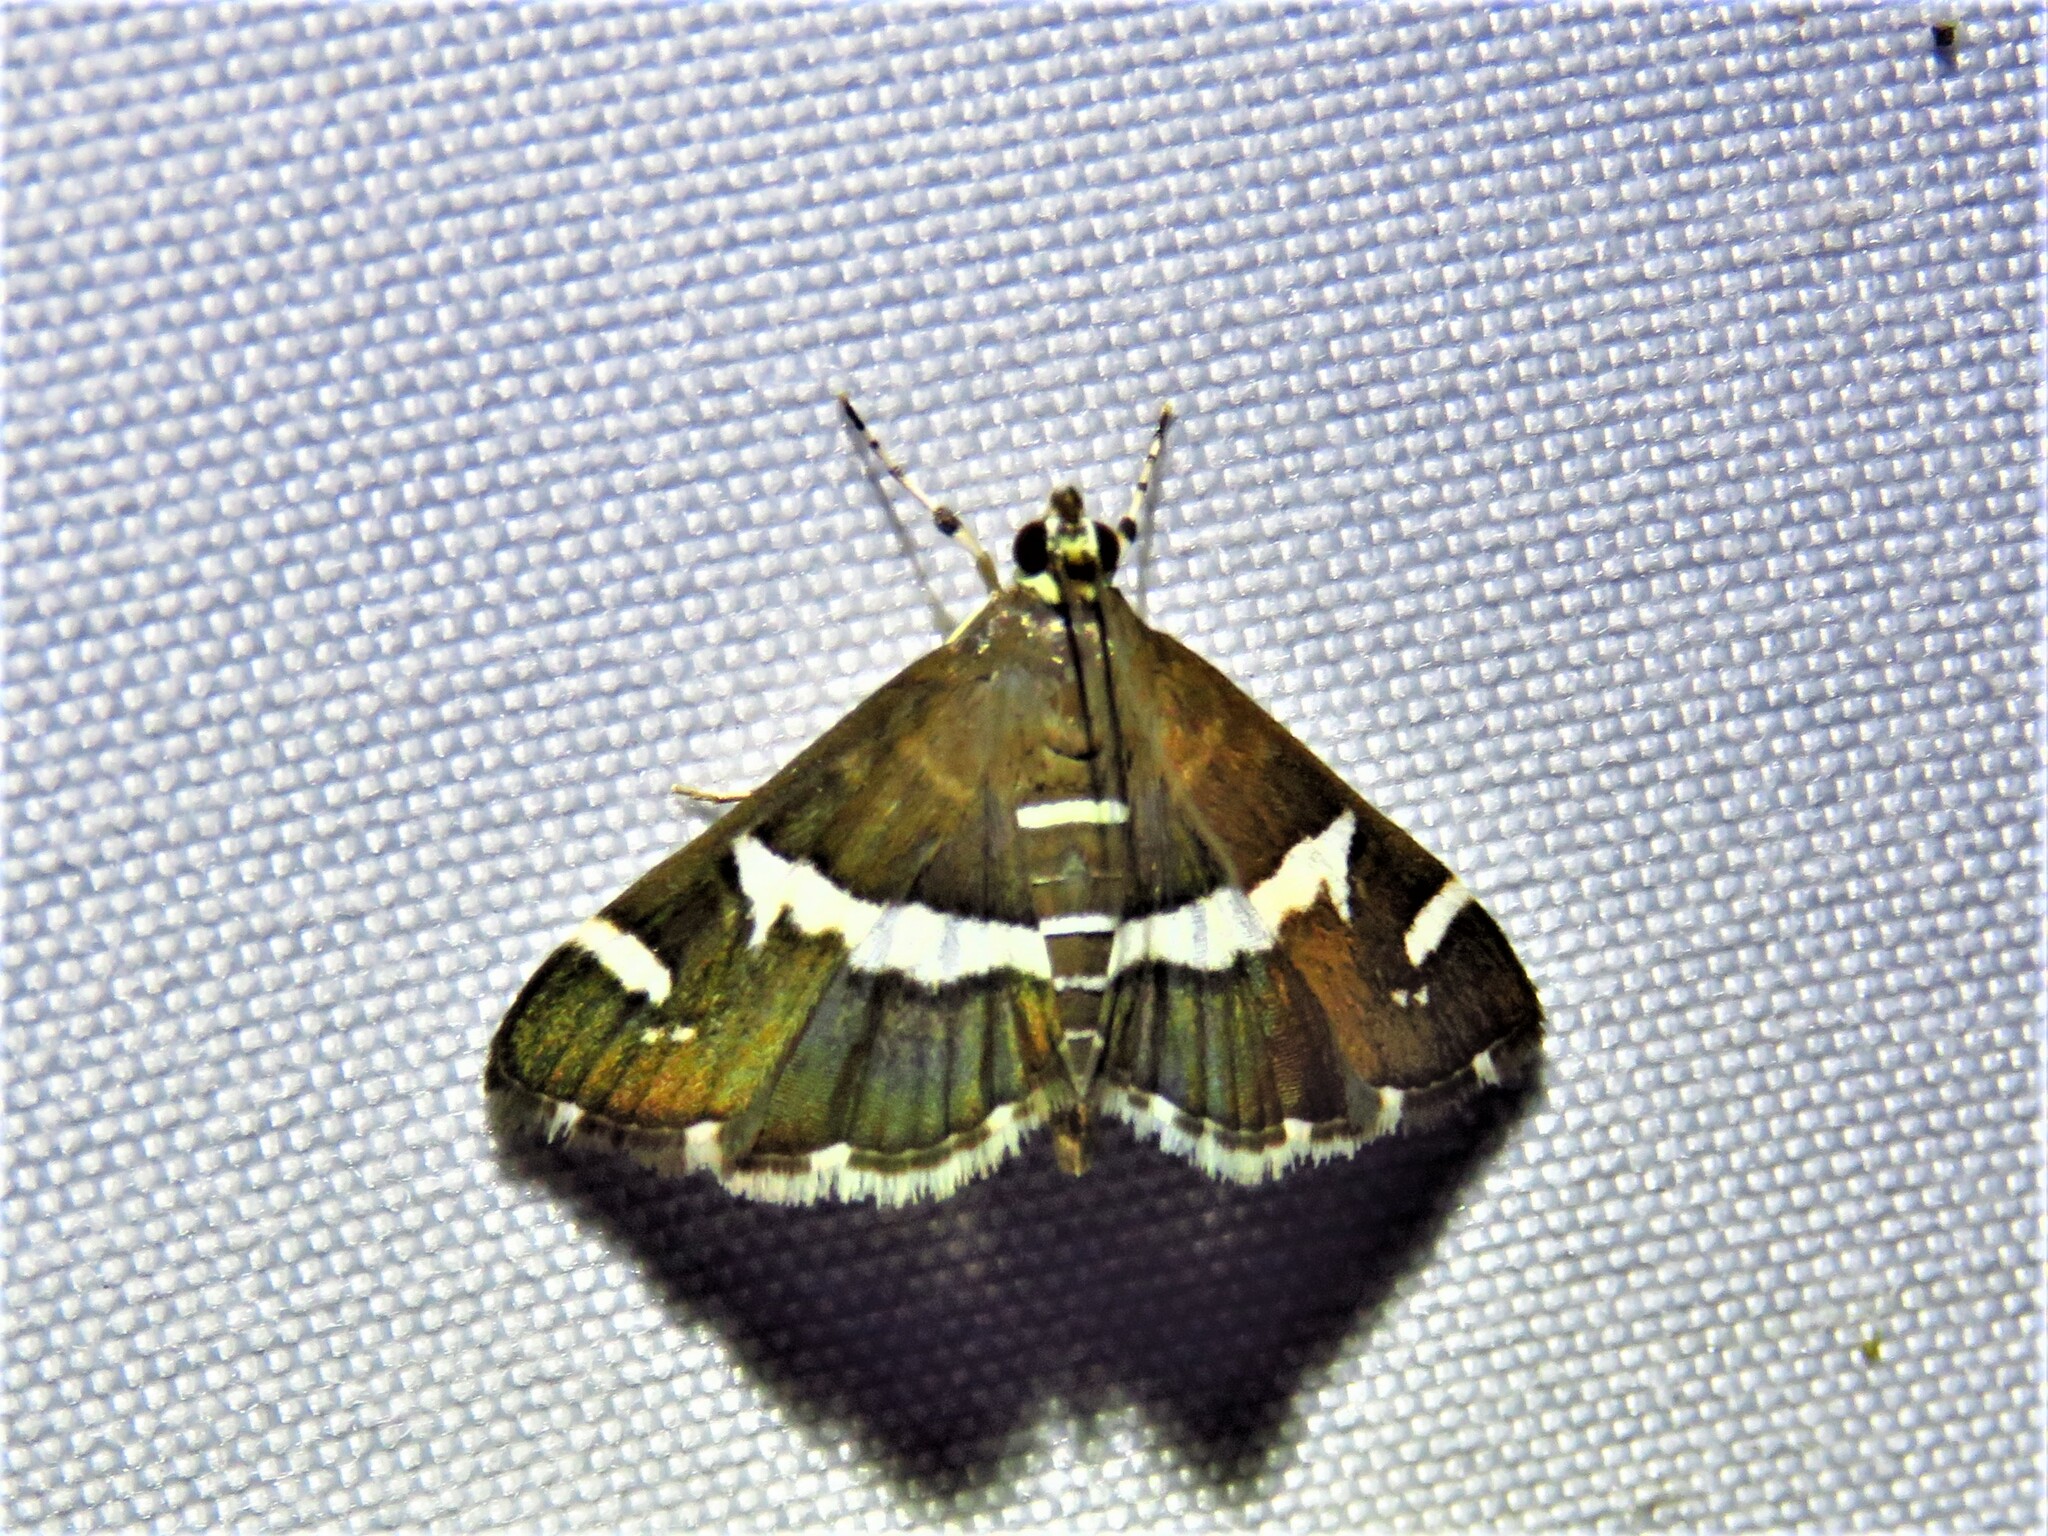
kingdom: Animalia
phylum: Arthropoda
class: Insecta
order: Lepidoptera
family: Crambidae
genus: Spoladea
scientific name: Spoladea recurvalis
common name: Beet webworm moth
